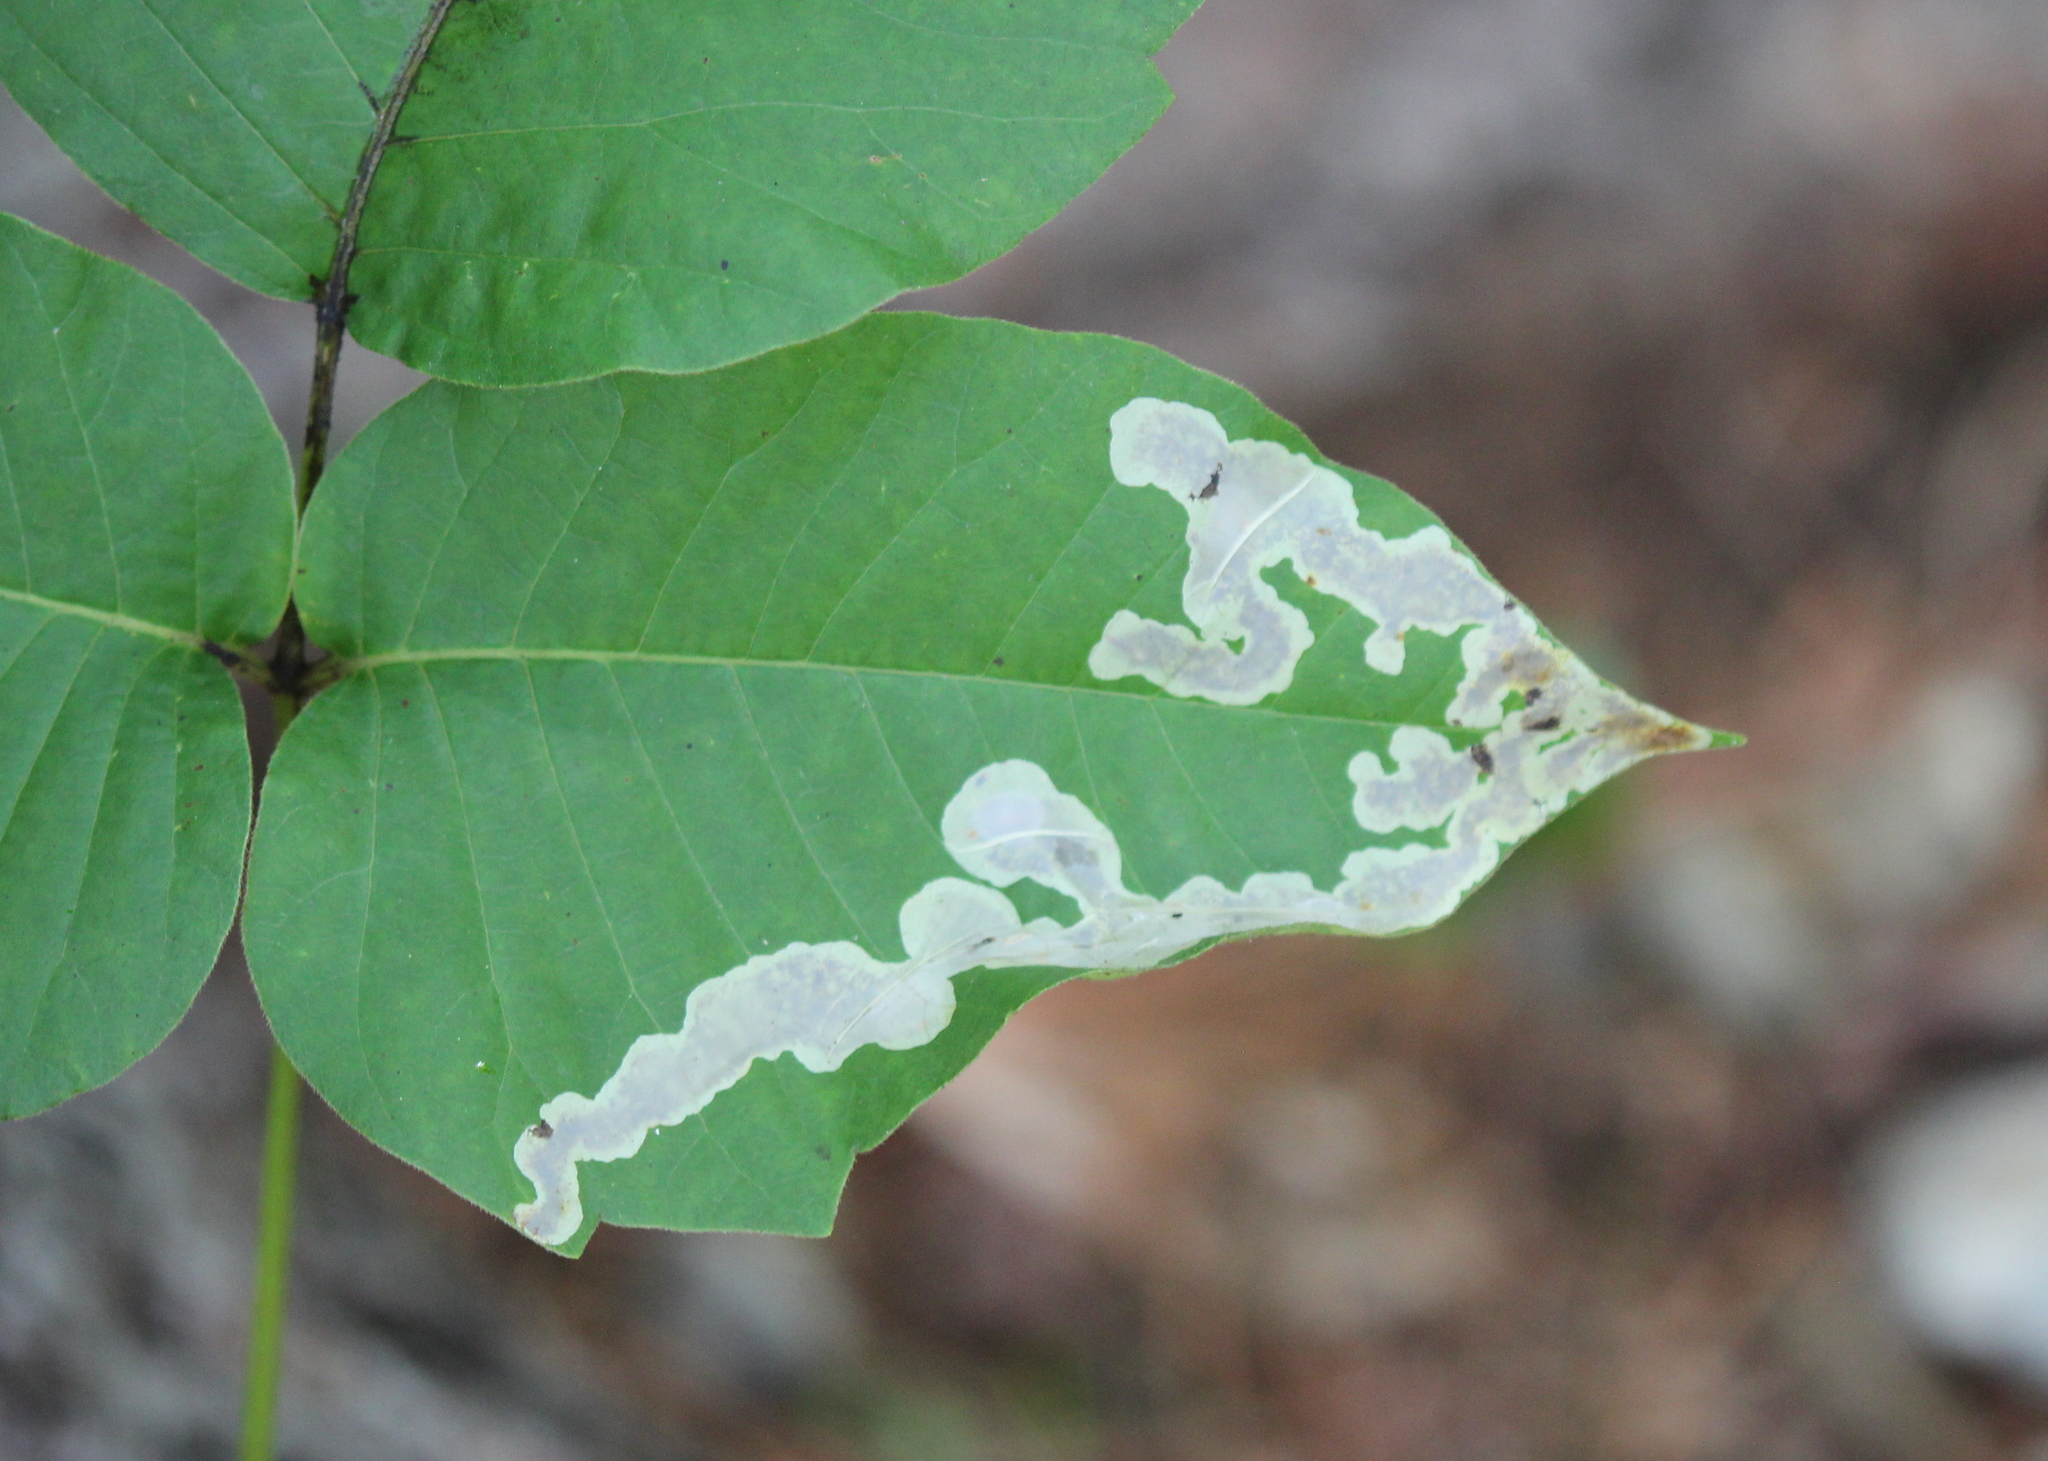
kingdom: Animalia
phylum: Arthropoda
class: Insecta
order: Lepidoptera
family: Gracillariidae
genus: Cameraria
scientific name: Cameraria guttifinitella
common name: Poison ivy leaf-miner moth
